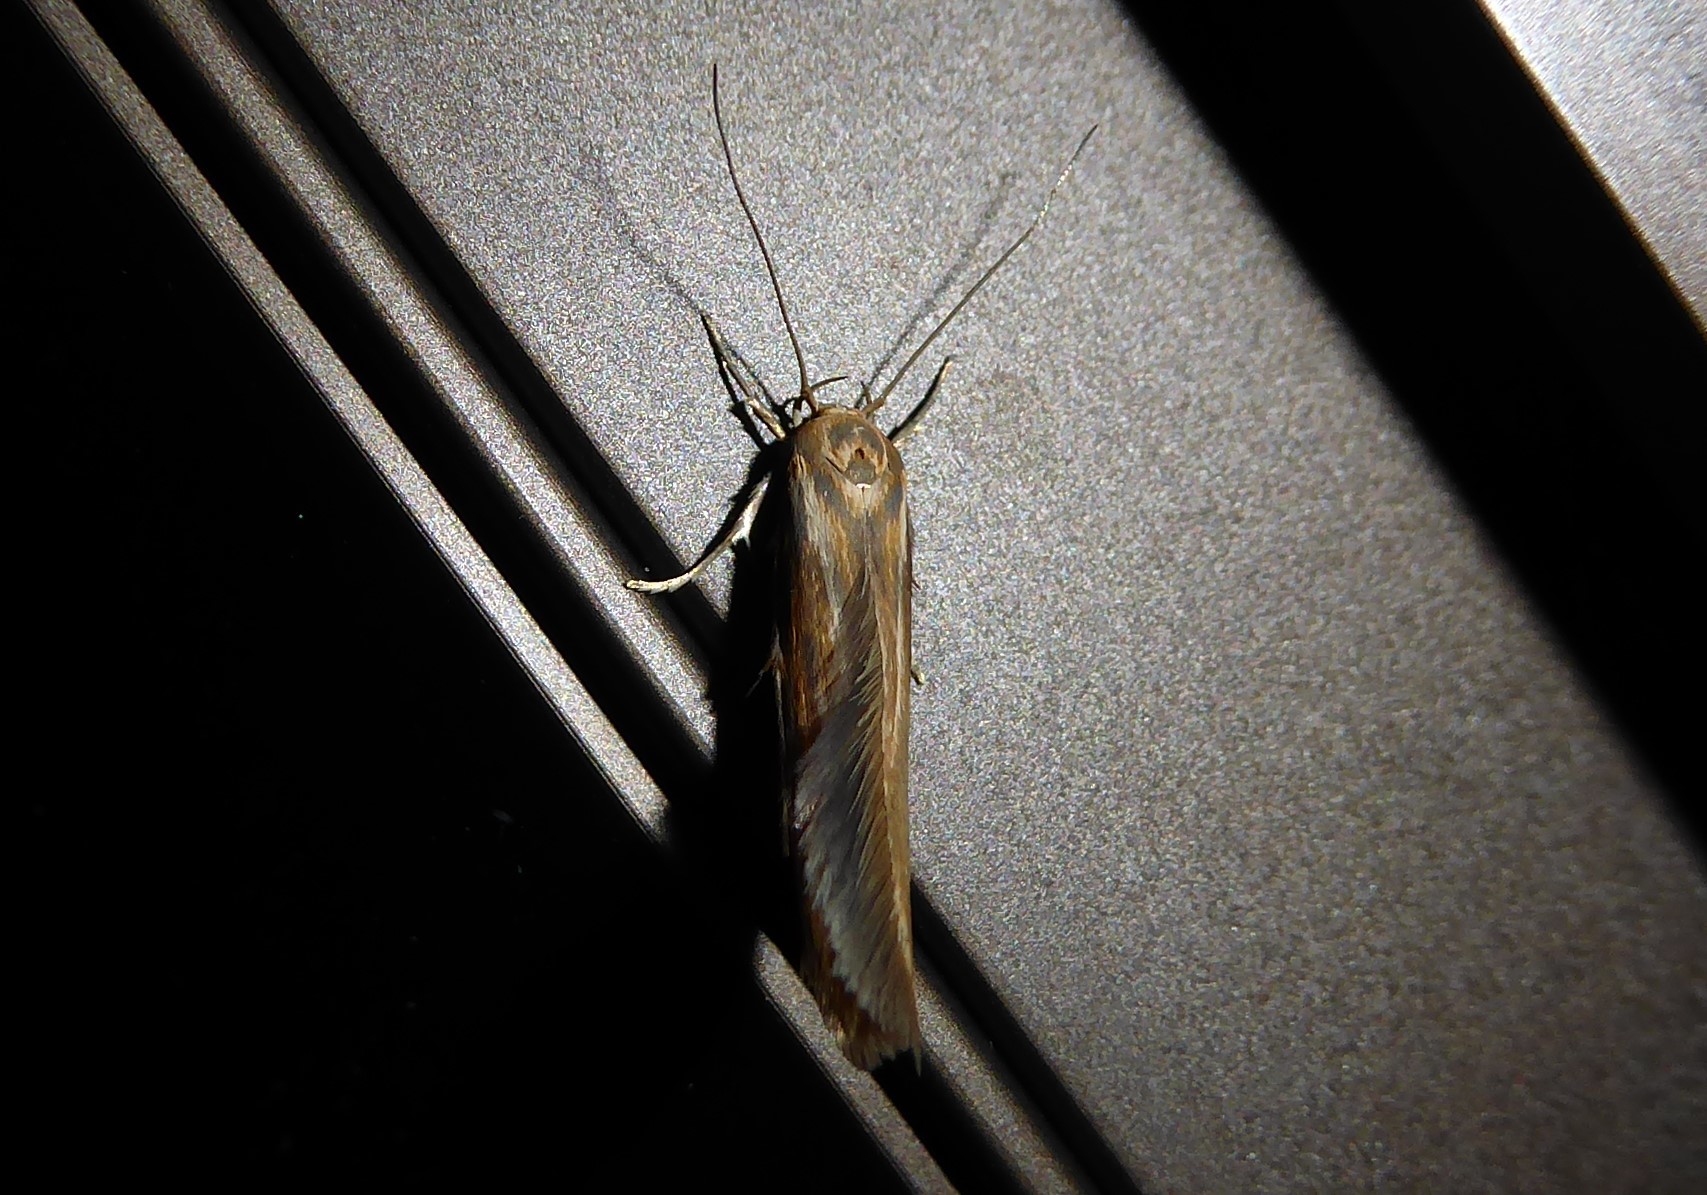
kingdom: Animalia
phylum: Arthropoda
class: Insecta
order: Lepidoptera
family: Stathmopodidae
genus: Stathmopoda
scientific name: Stathmopoda aposema
